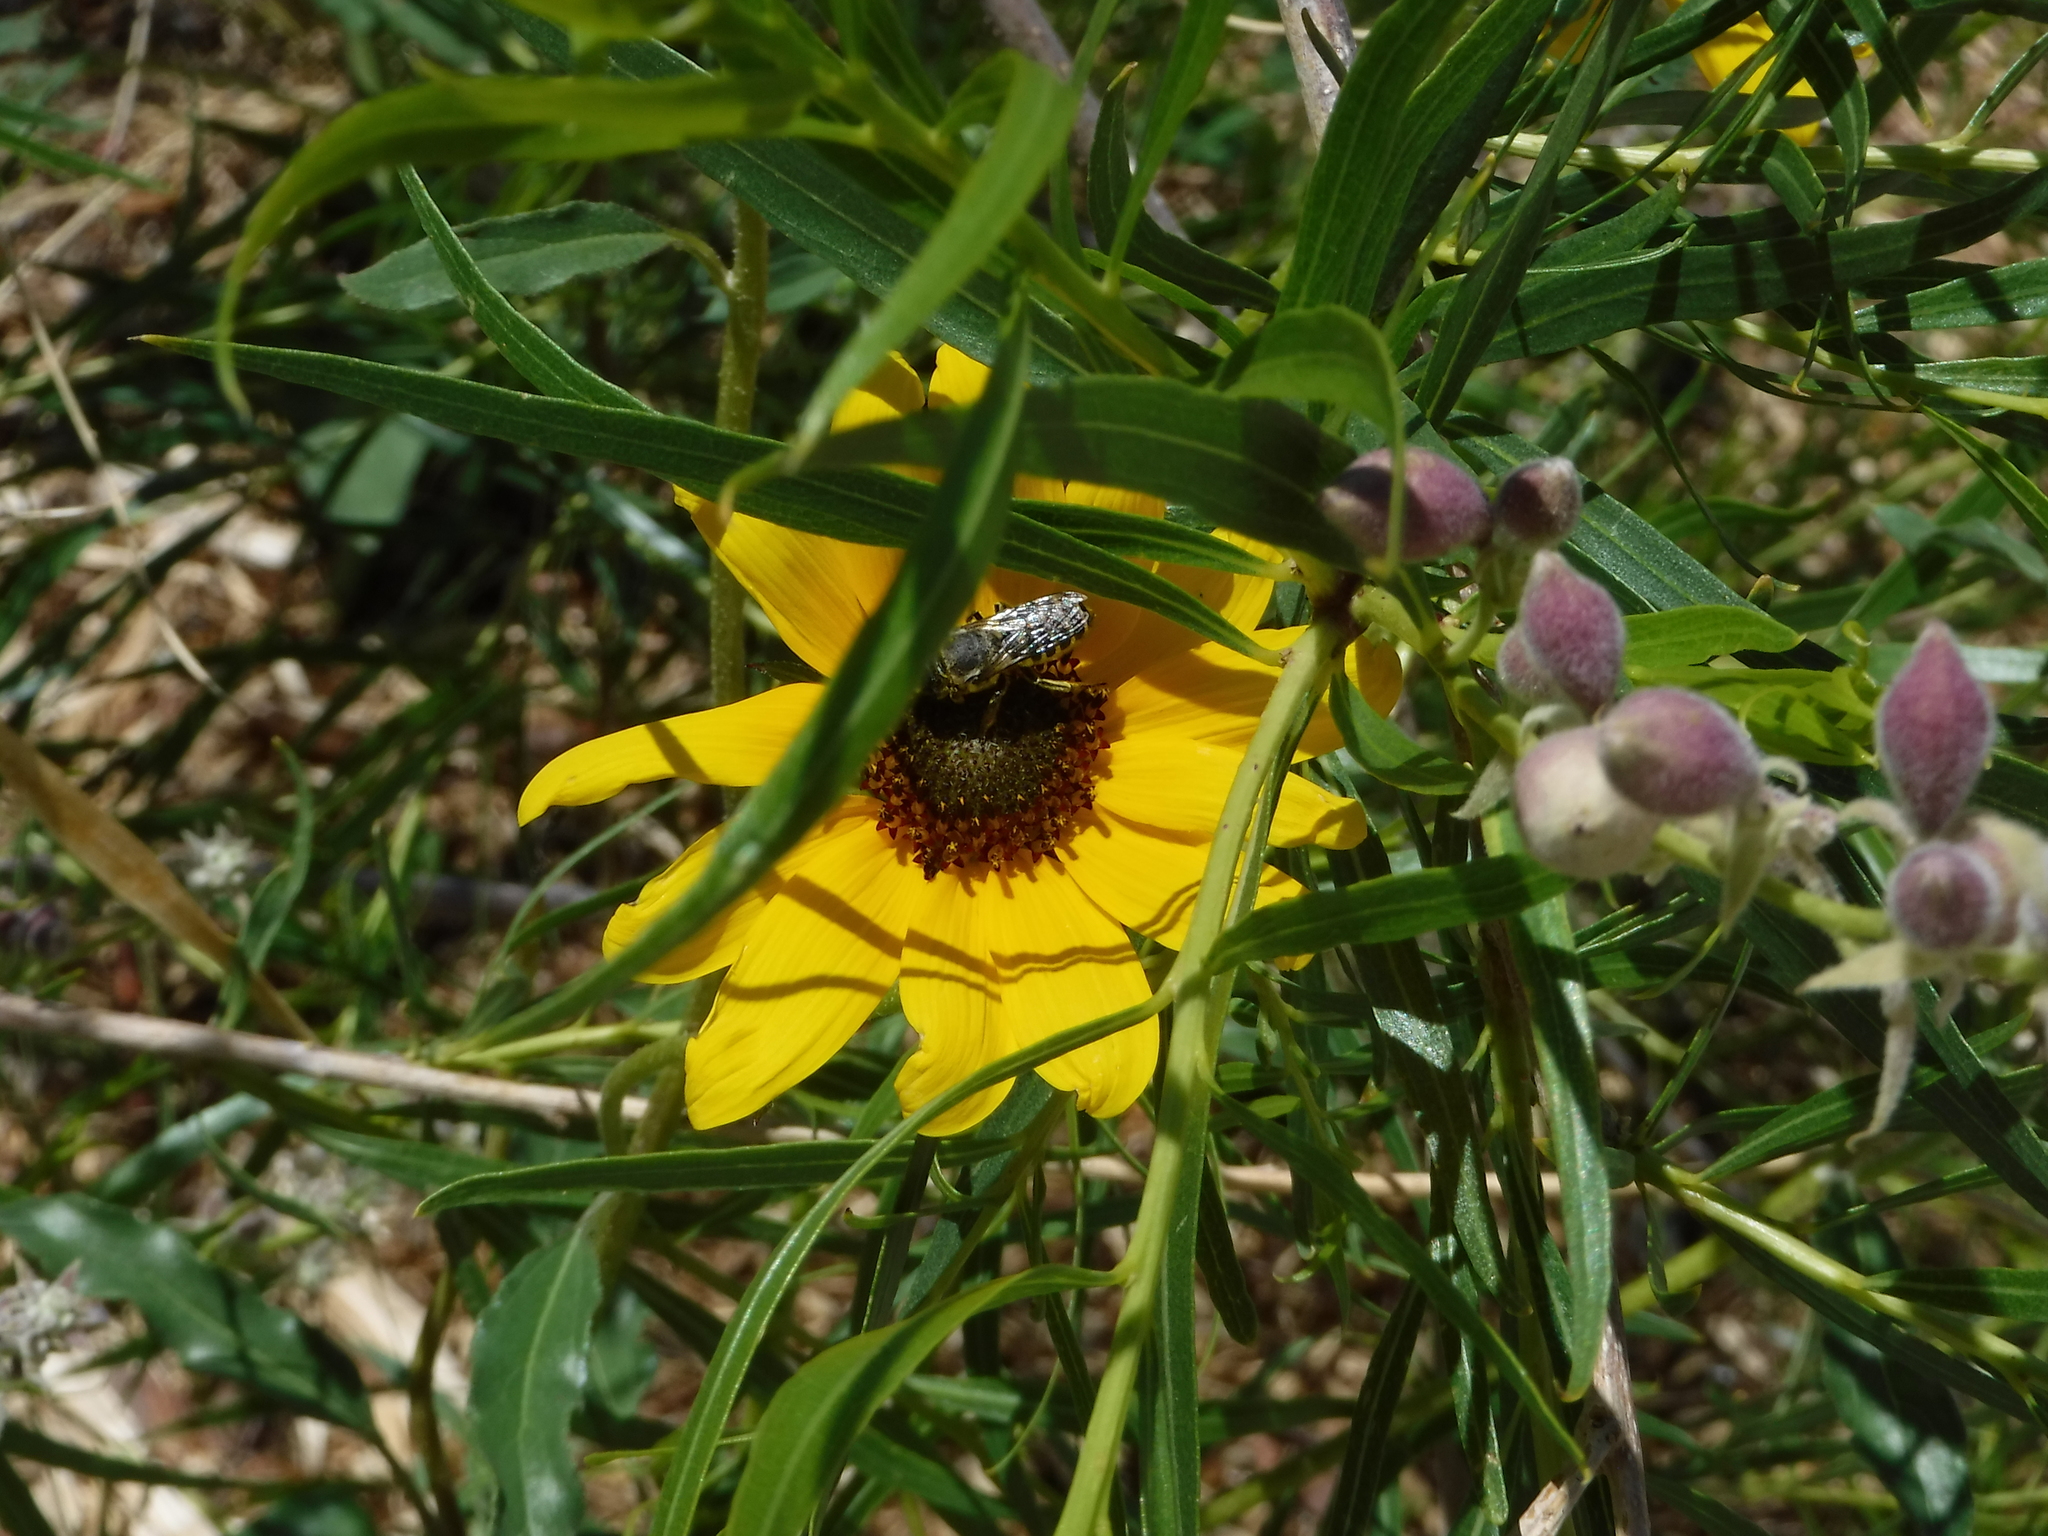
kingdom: Animalia
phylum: Arthropoda
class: Insecta
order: Hymenoptera
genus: Sayapis
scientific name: Sayapis
